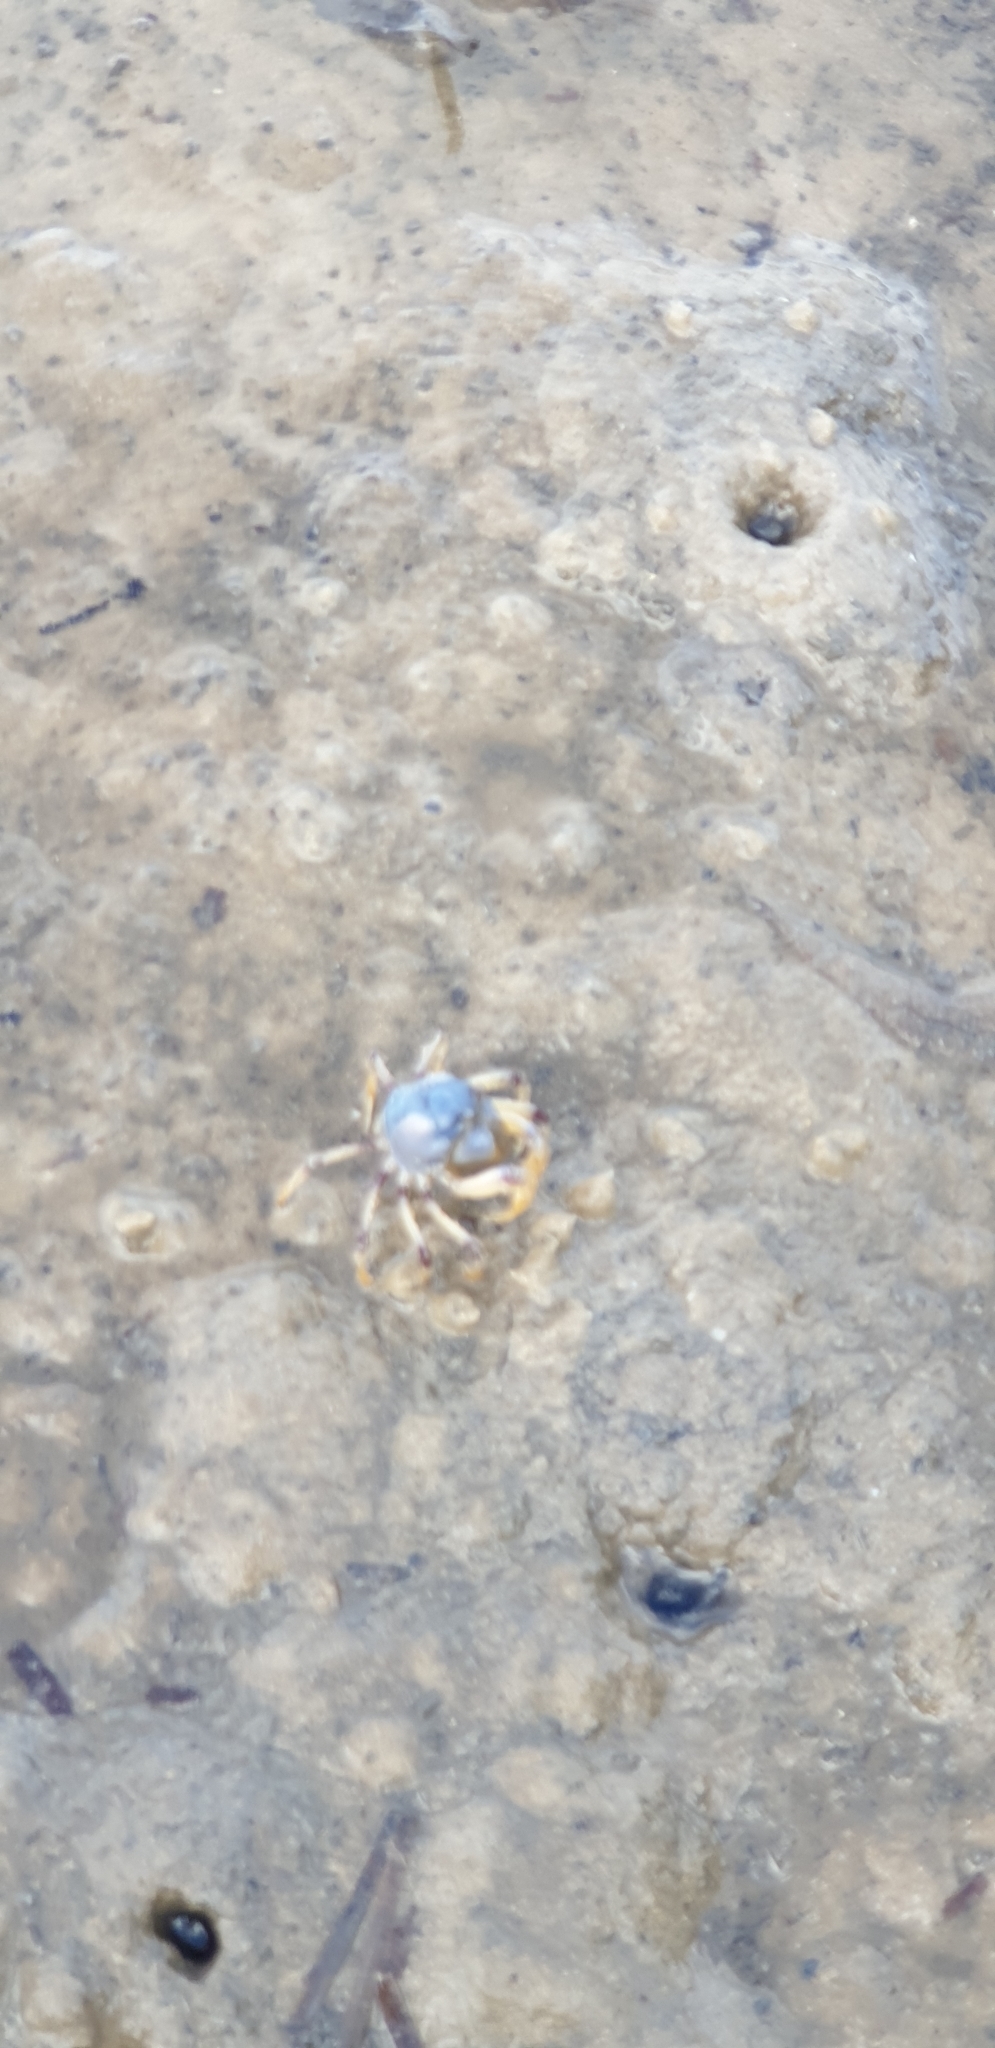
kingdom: Animalia
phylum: Arthropoda
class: Malacostraca
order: Decapoda
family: Mictyridae
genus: Mictyris
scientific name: Mictyris longicarpus
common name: Light-blue soldier crab
